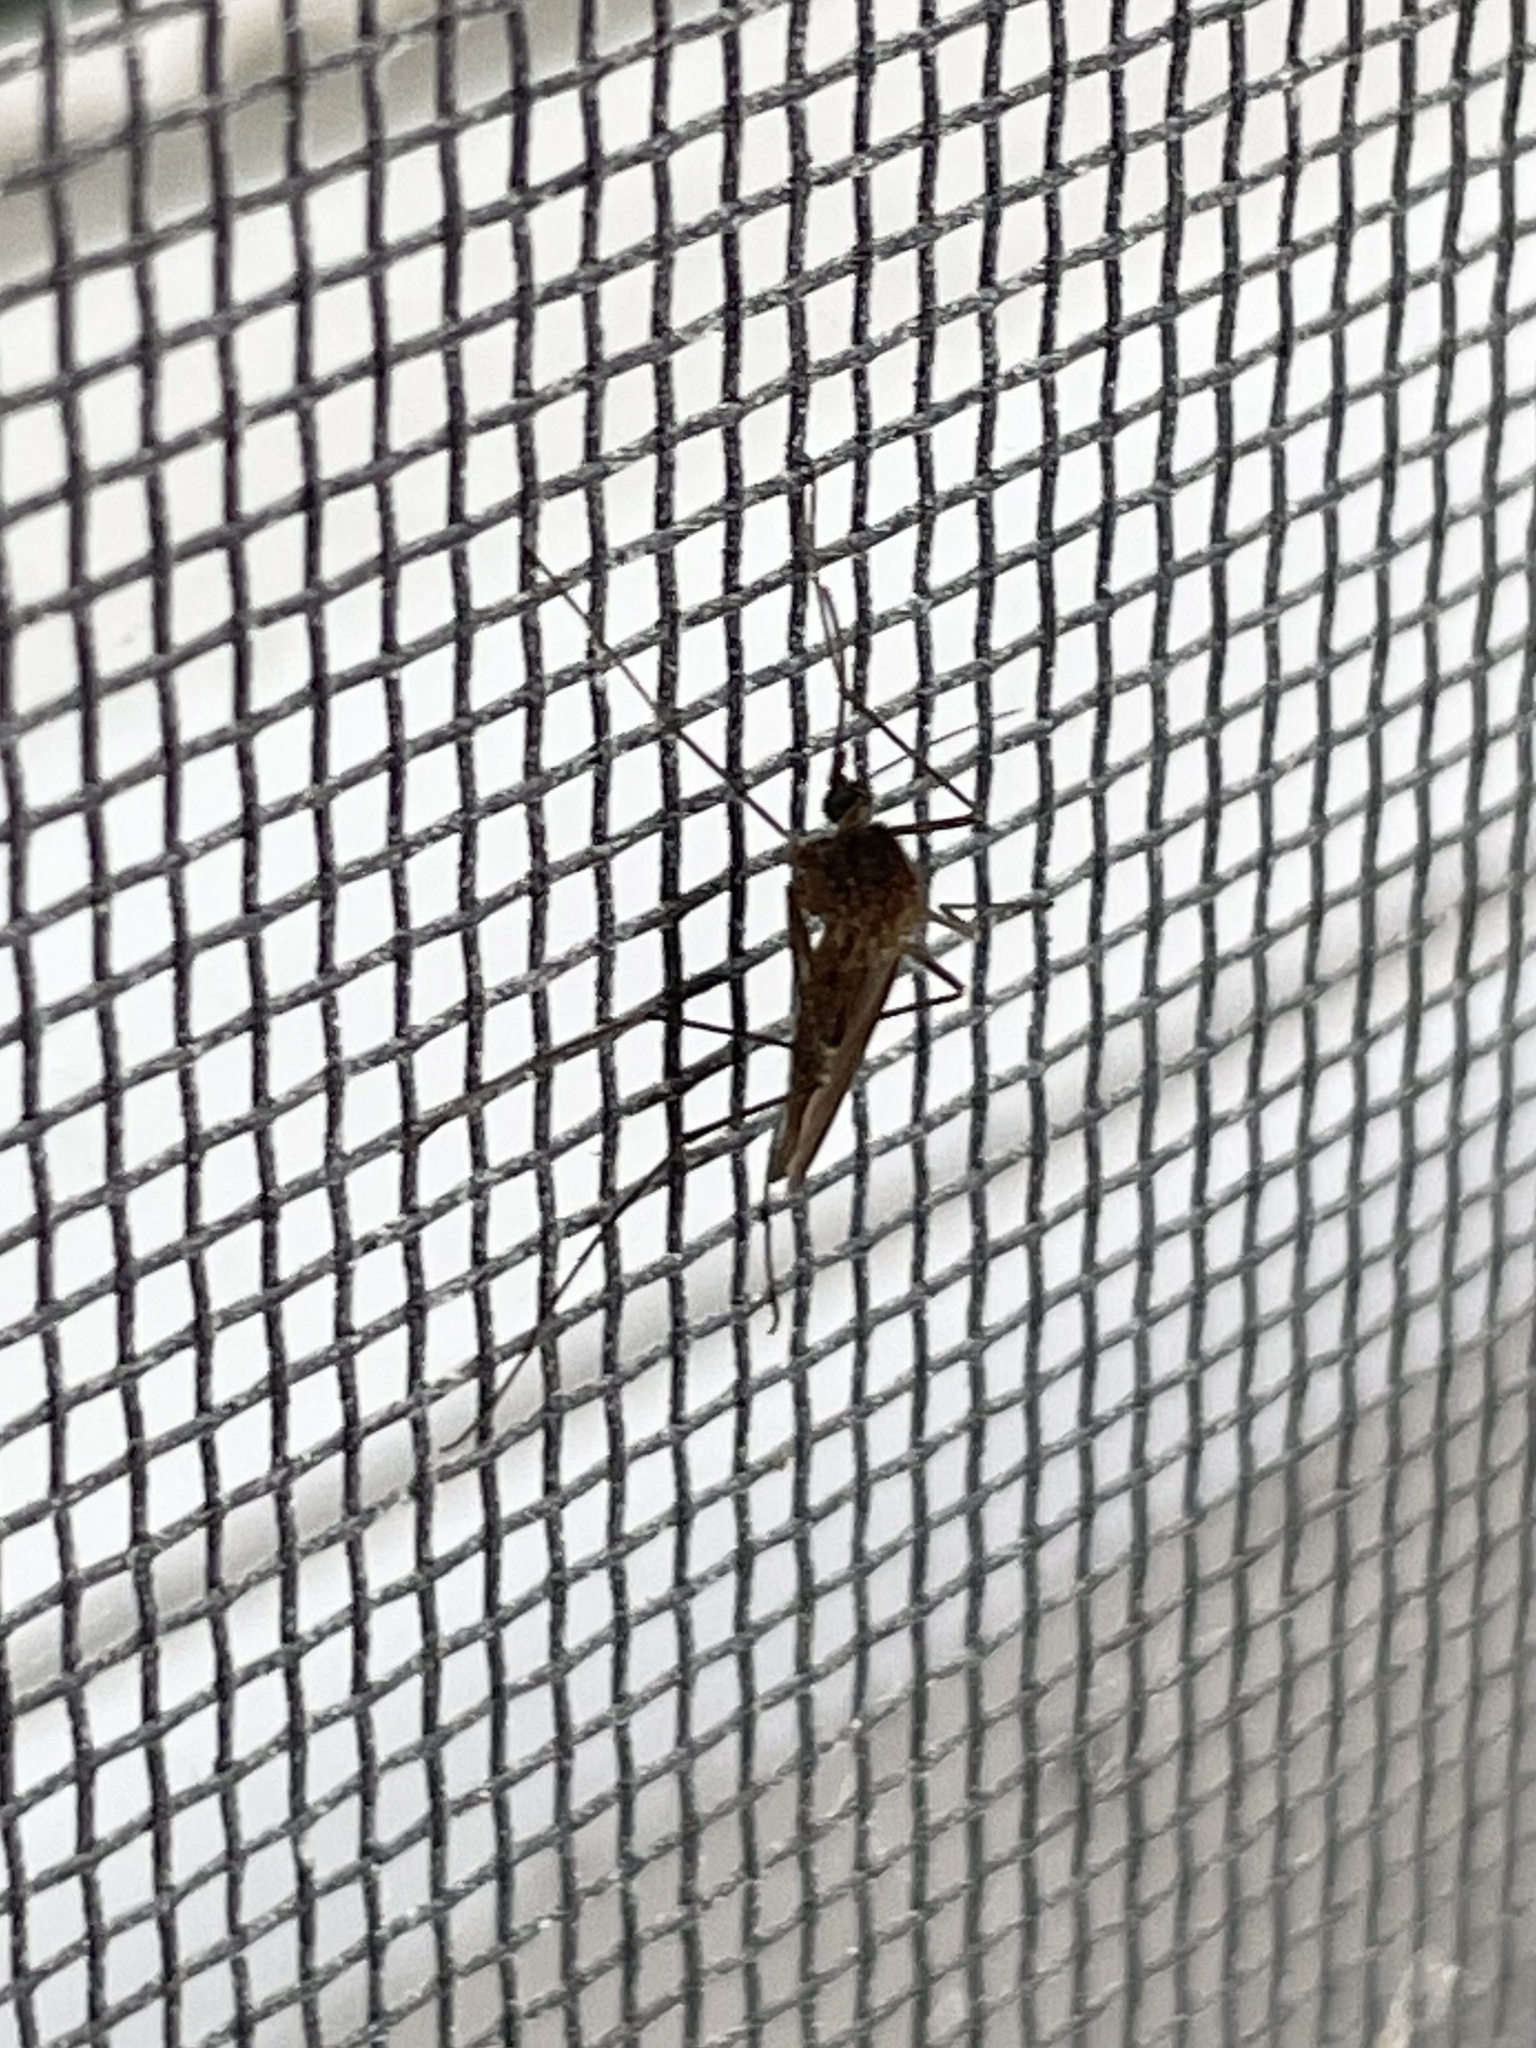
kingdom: Animalia
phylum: Arthropoda
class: Insecta
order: Diptera
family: Culicidae
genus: Culiseta
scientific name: Culiseta inornata
